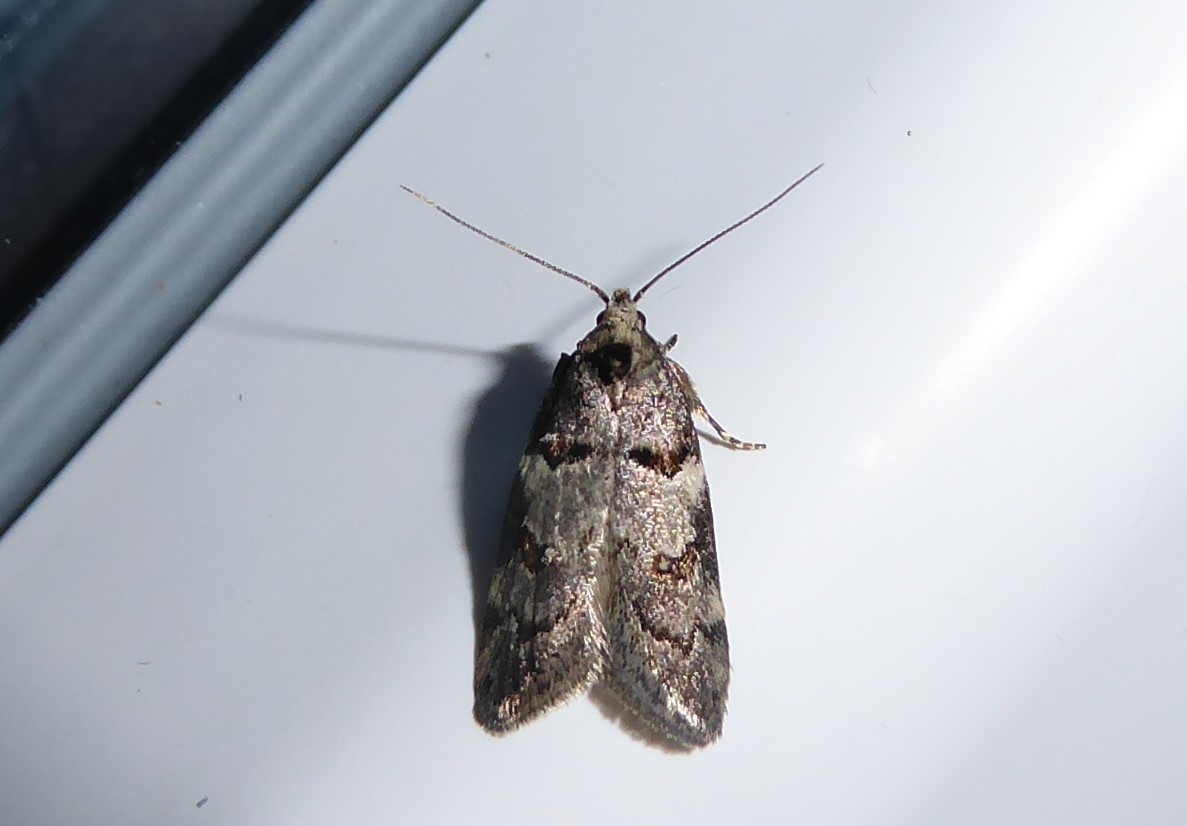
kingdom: Animalia
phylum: Arthropoda
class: Insecta
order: Lepidoptera
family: Oecophoridae
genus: Trachypepla
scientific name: Trachypepla contritella
